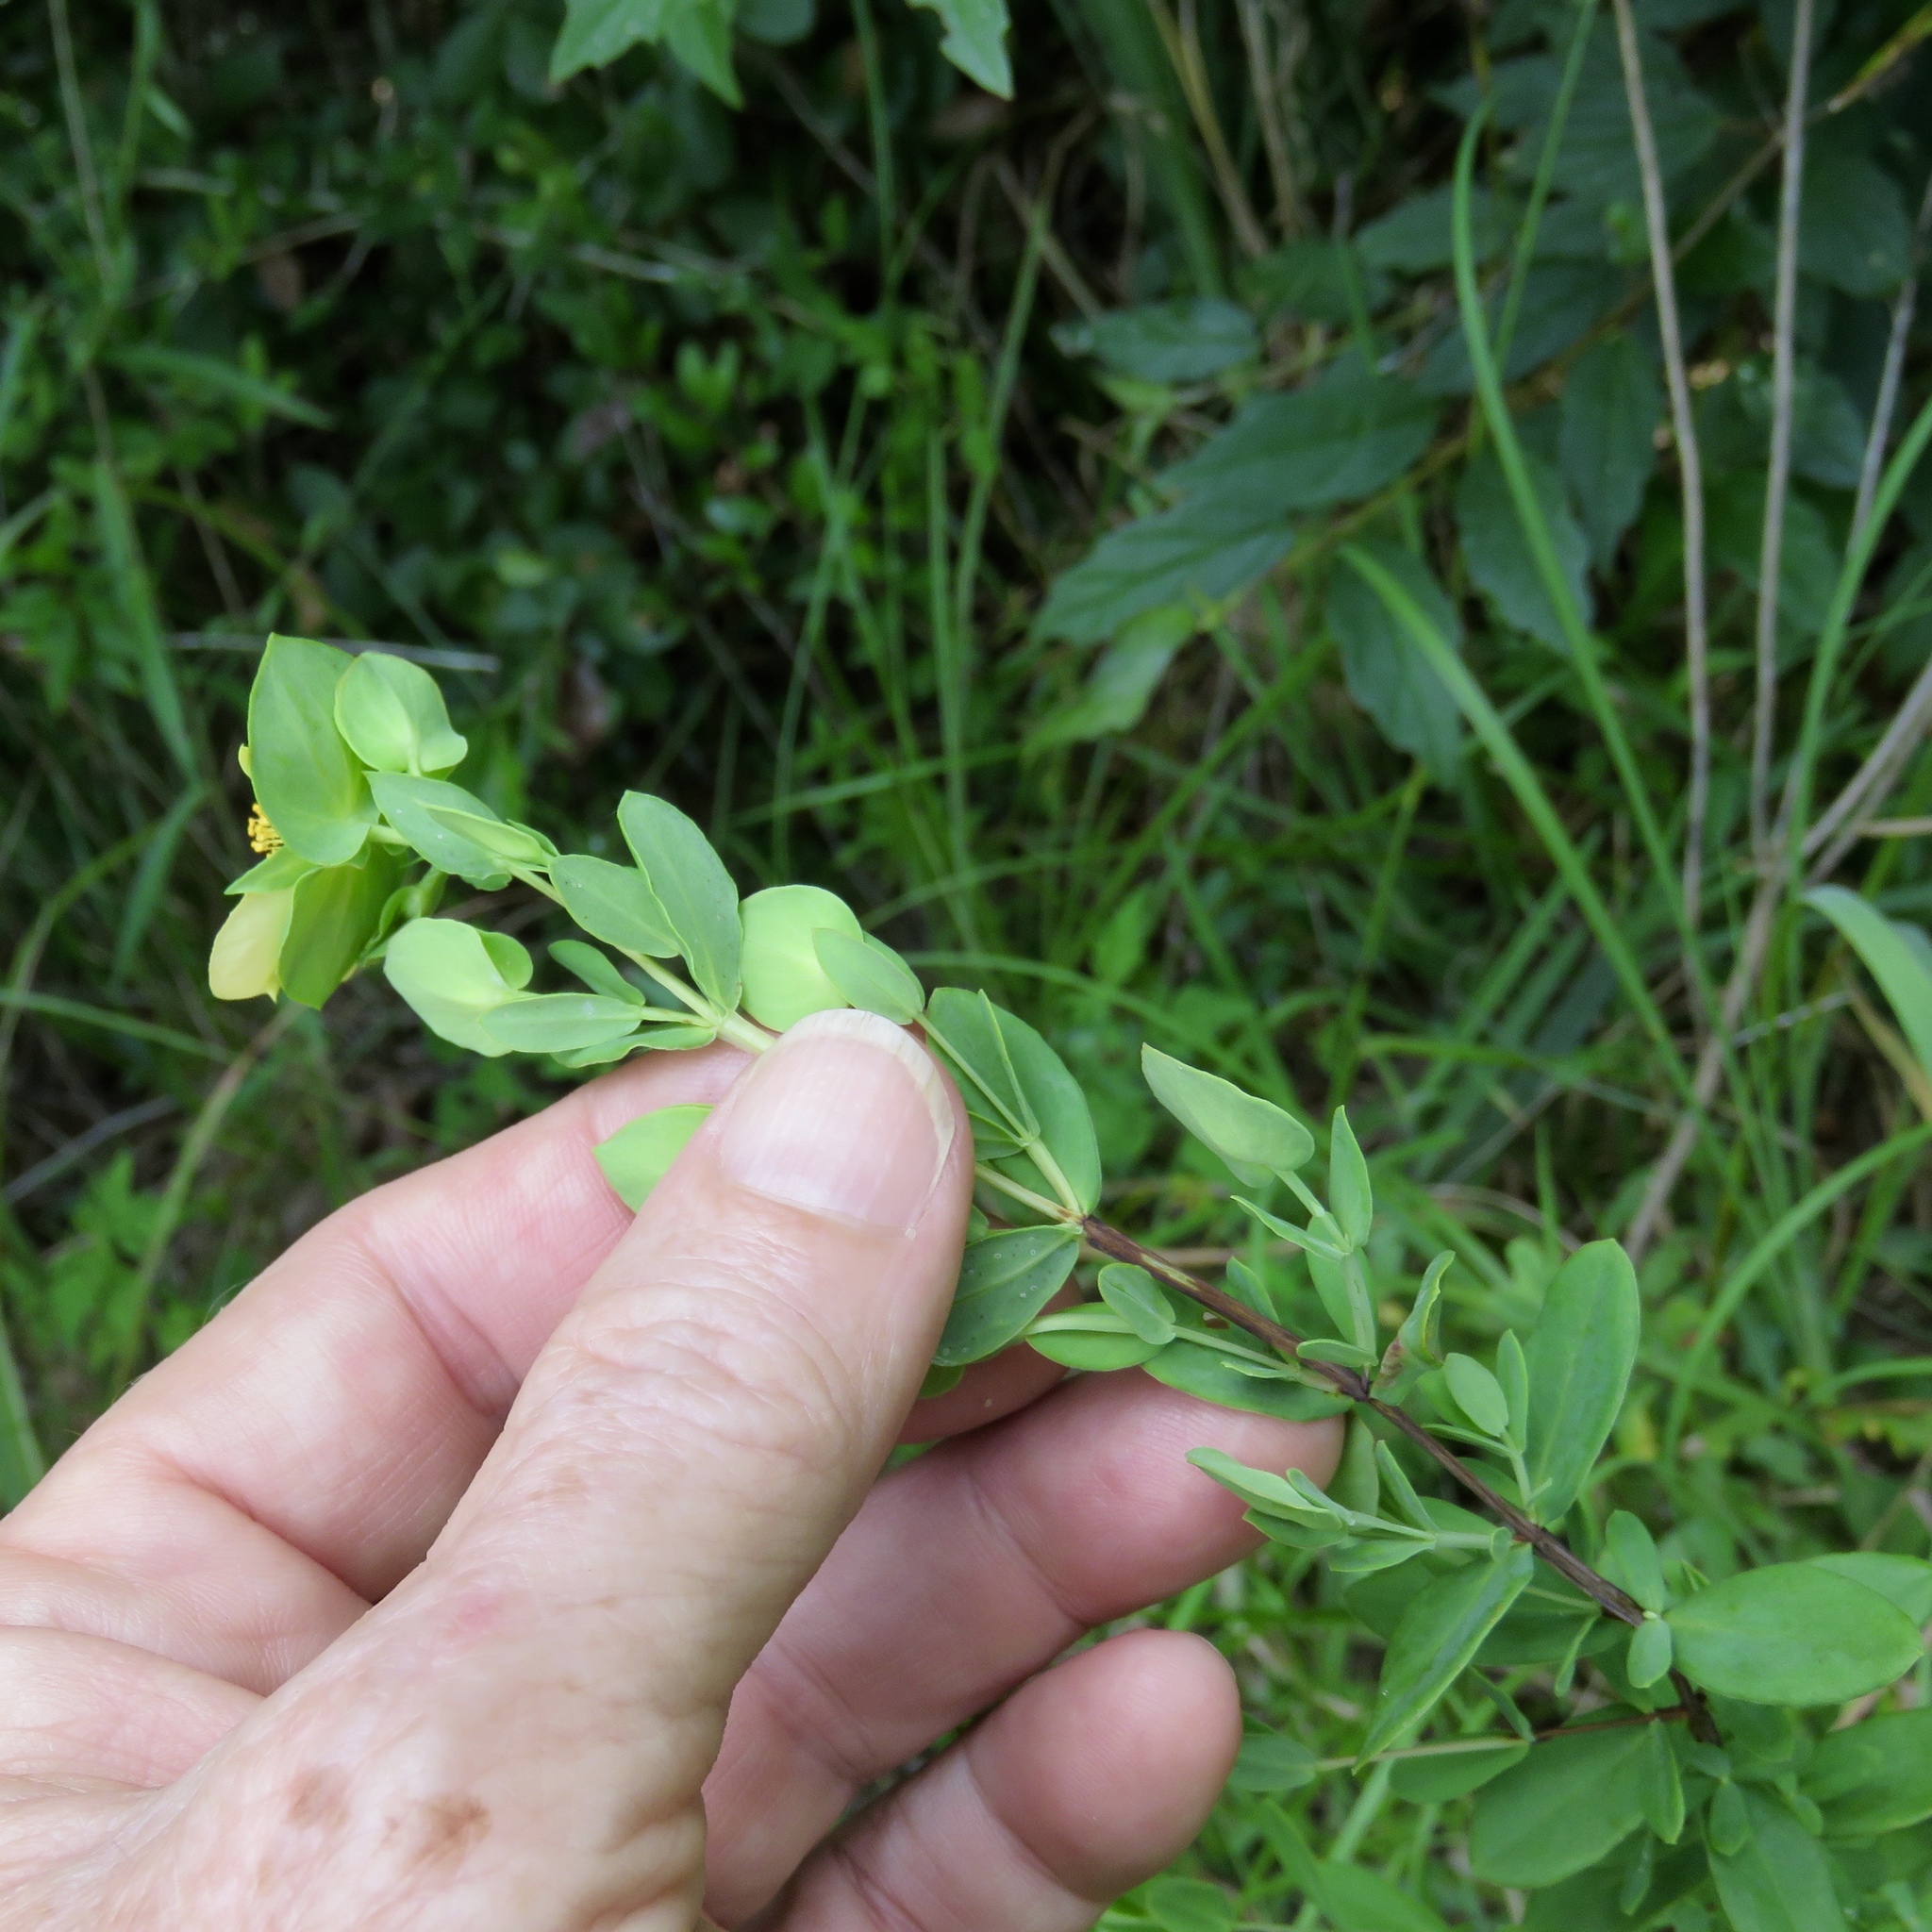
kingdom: Plantae
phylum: Tracheophyta
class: Magnoliopsida
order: Malpighiales
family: Hypericaceae
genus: Hypericum
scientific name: Hypericum crux-andreae
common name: St.-peter's-wort
